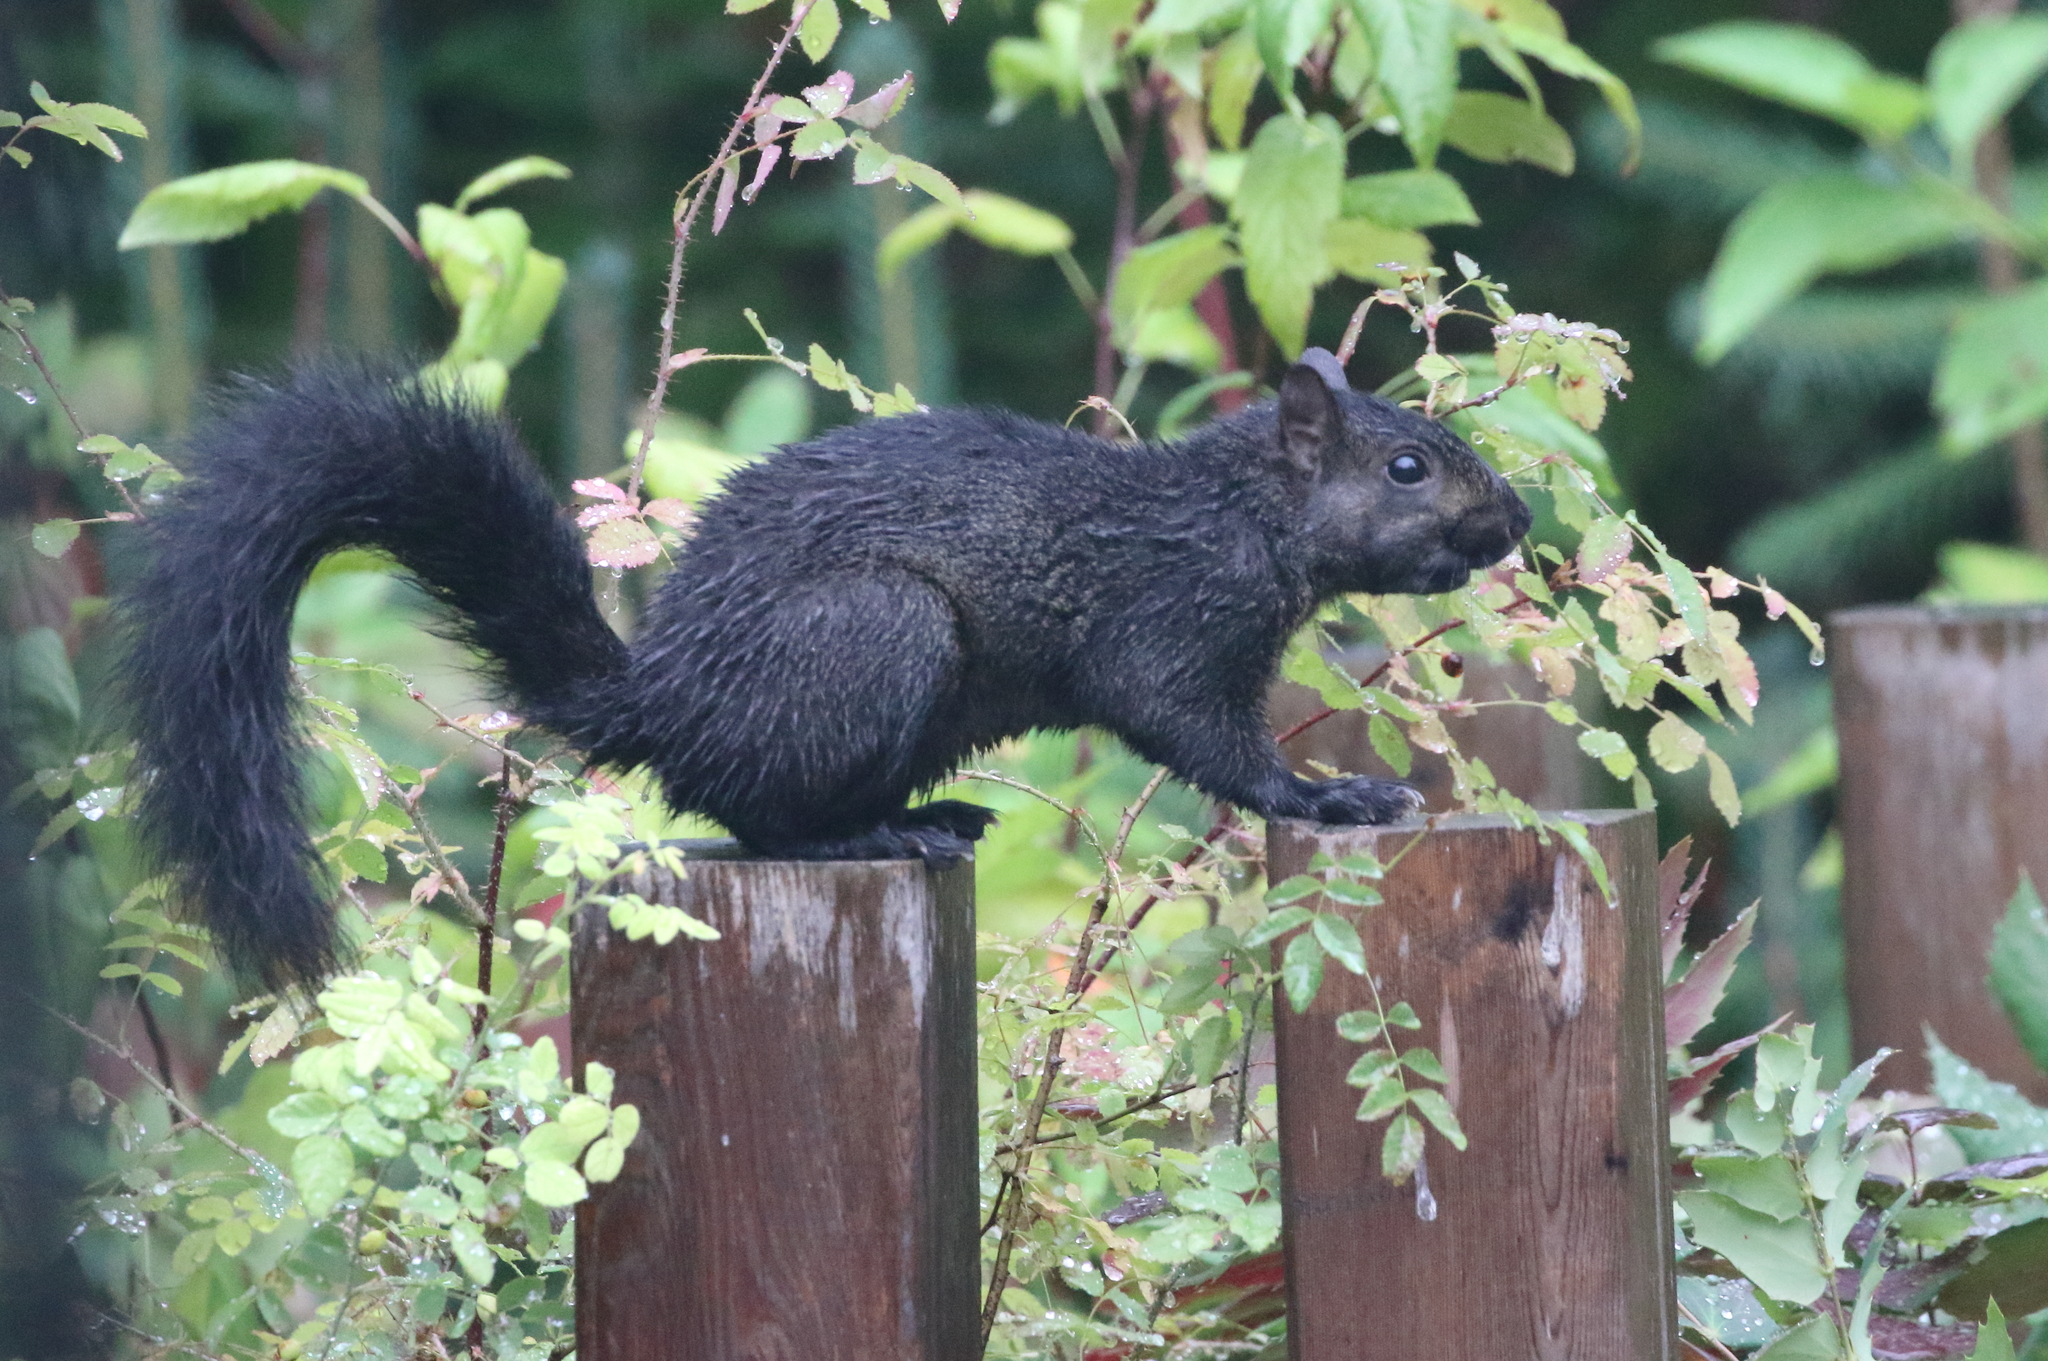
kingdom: Animalia
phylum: Chordata
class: Mammalia
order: Rodentia
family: Sciuridae
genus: Sciurus
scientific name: Sciurus carolinensis
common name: Eastern gray squirrel
